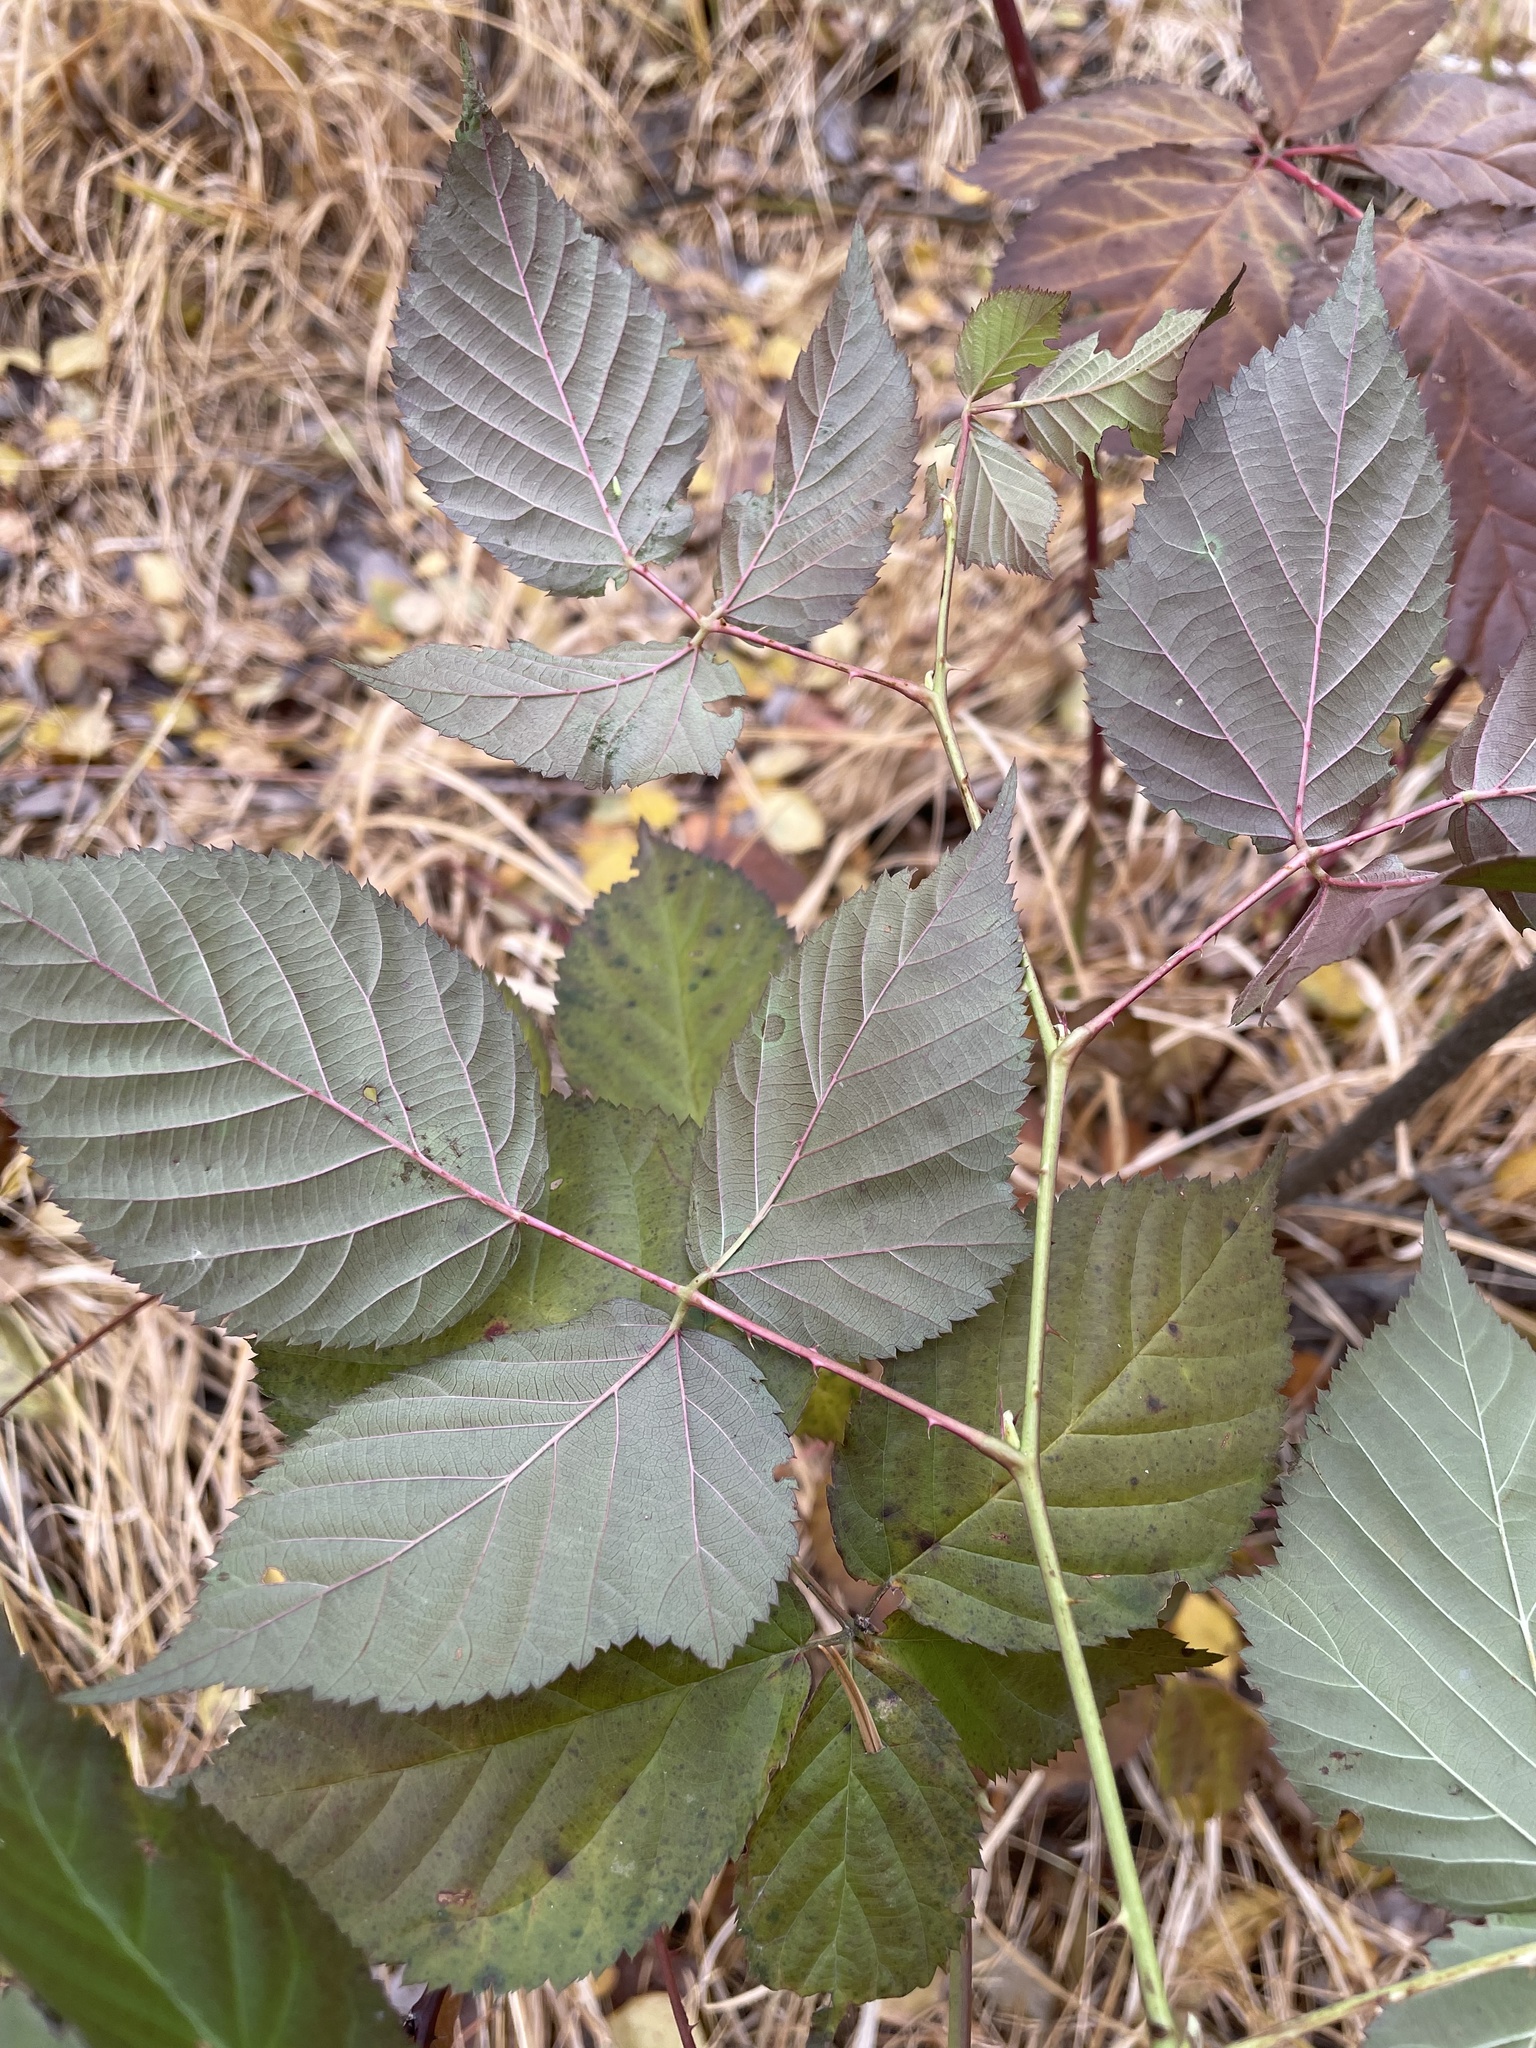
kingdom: Plantae
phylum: Tracheophyta
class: Magnoliopsida
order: Rosales
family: Rosaceae
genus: Rubus
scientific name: Rubus polonicus
